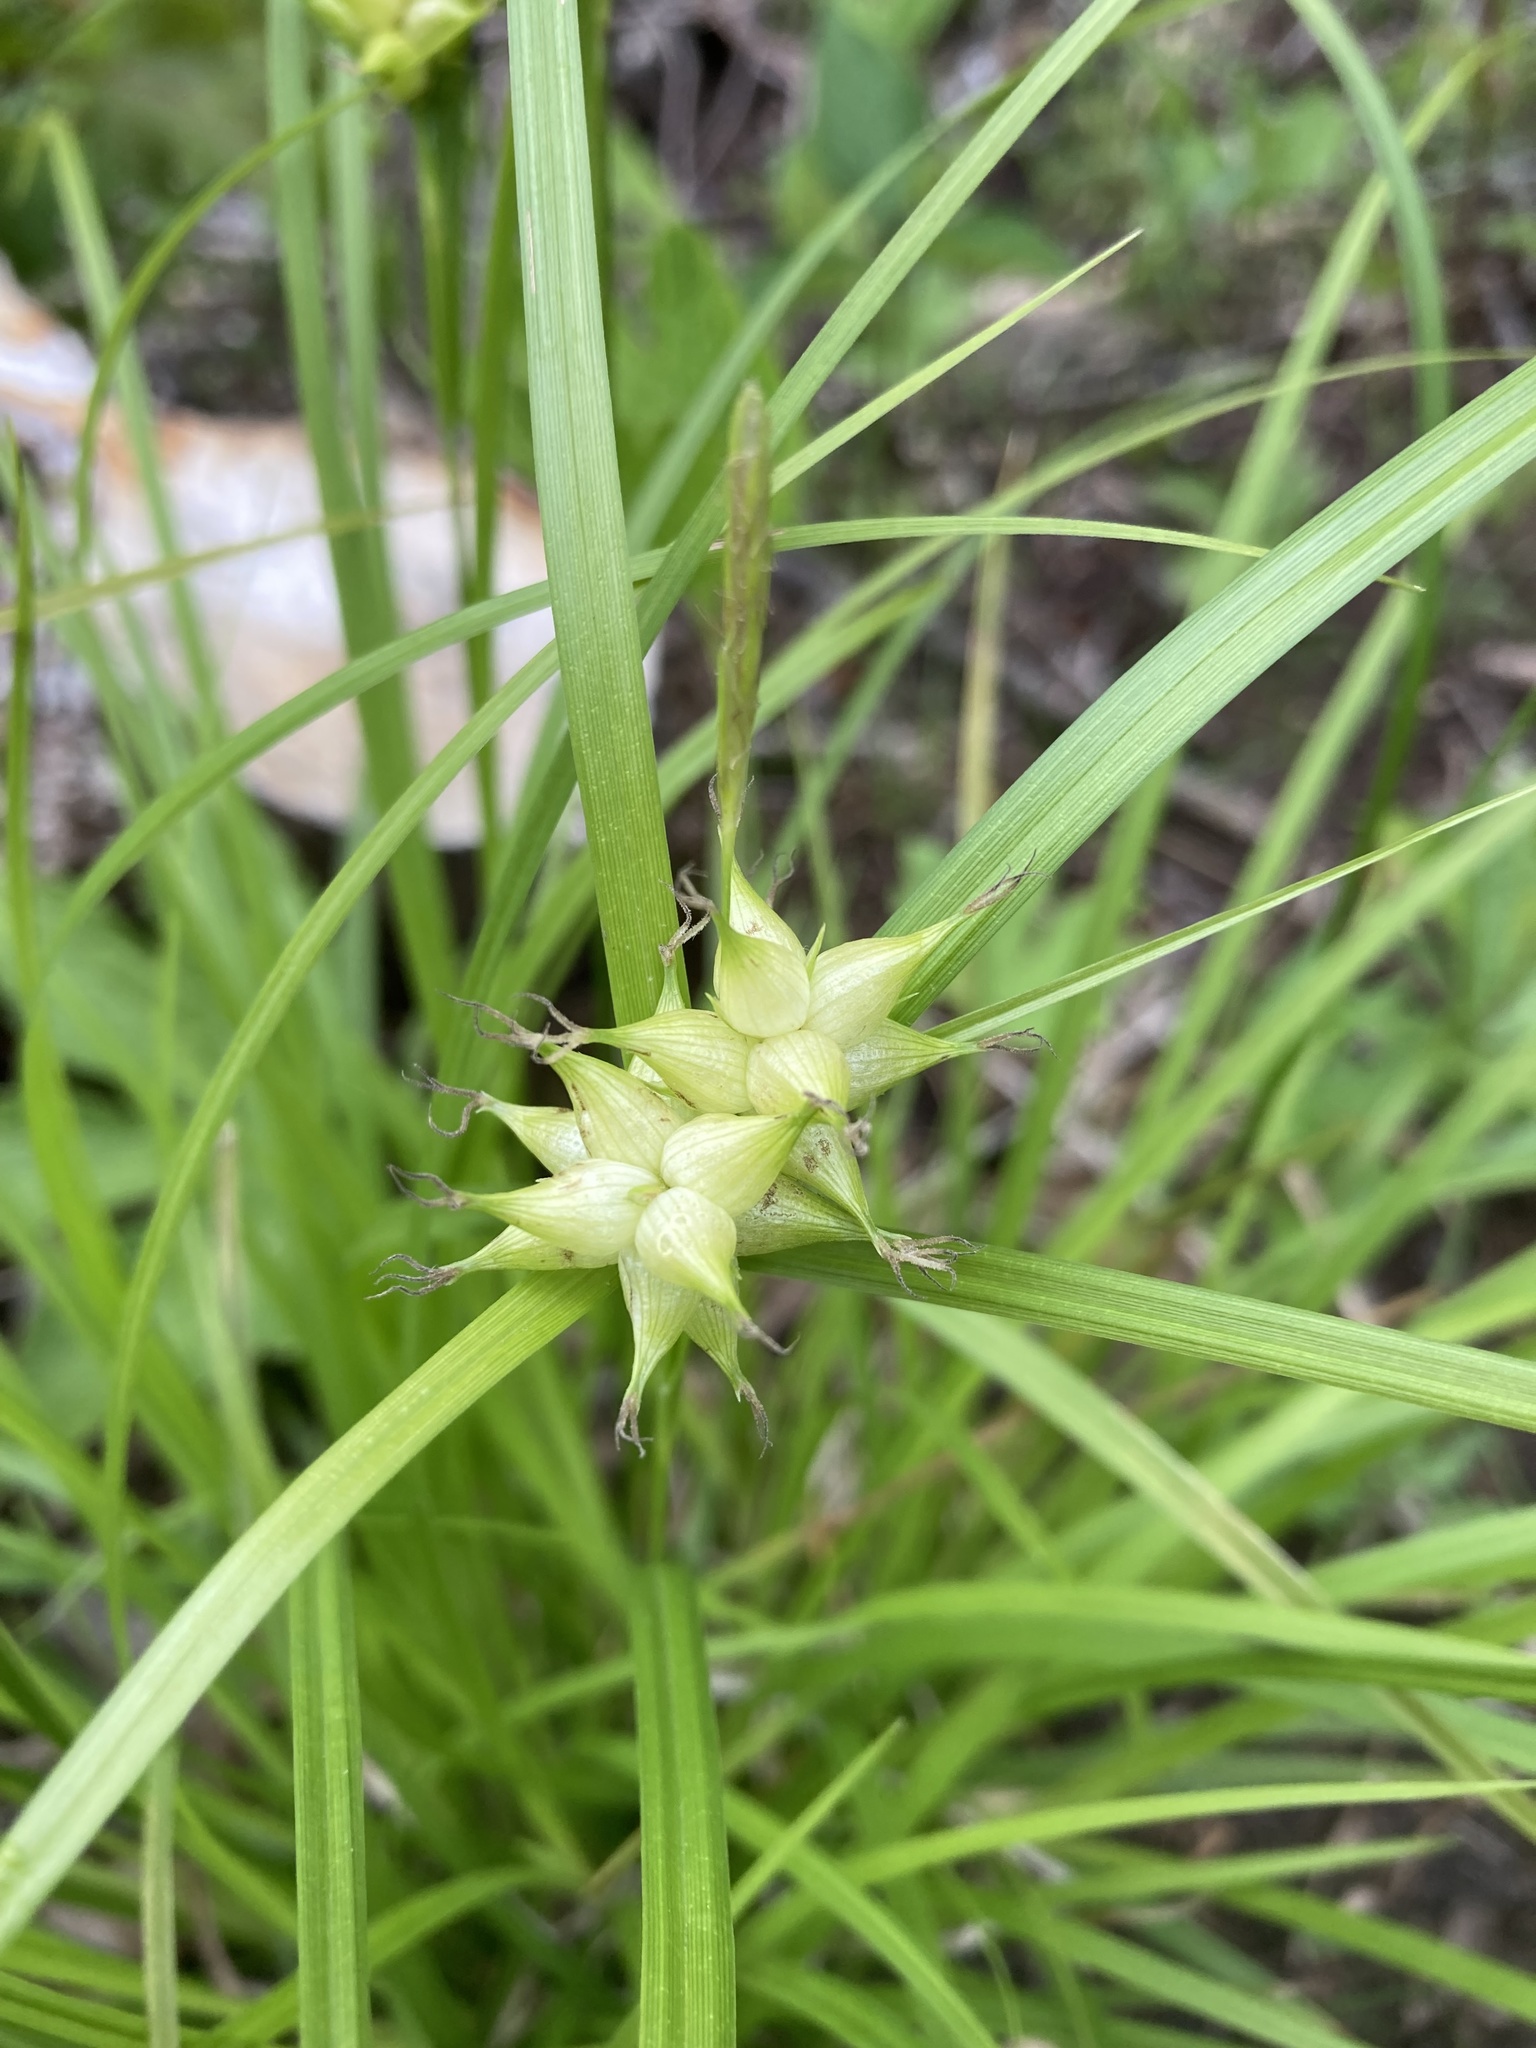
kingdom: Plantae
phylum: Tracheophyta
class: Liliopsida
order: Poales
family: Cyperaceae
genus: Carex
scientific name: Carex grayi
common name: Asa gray's sedge
